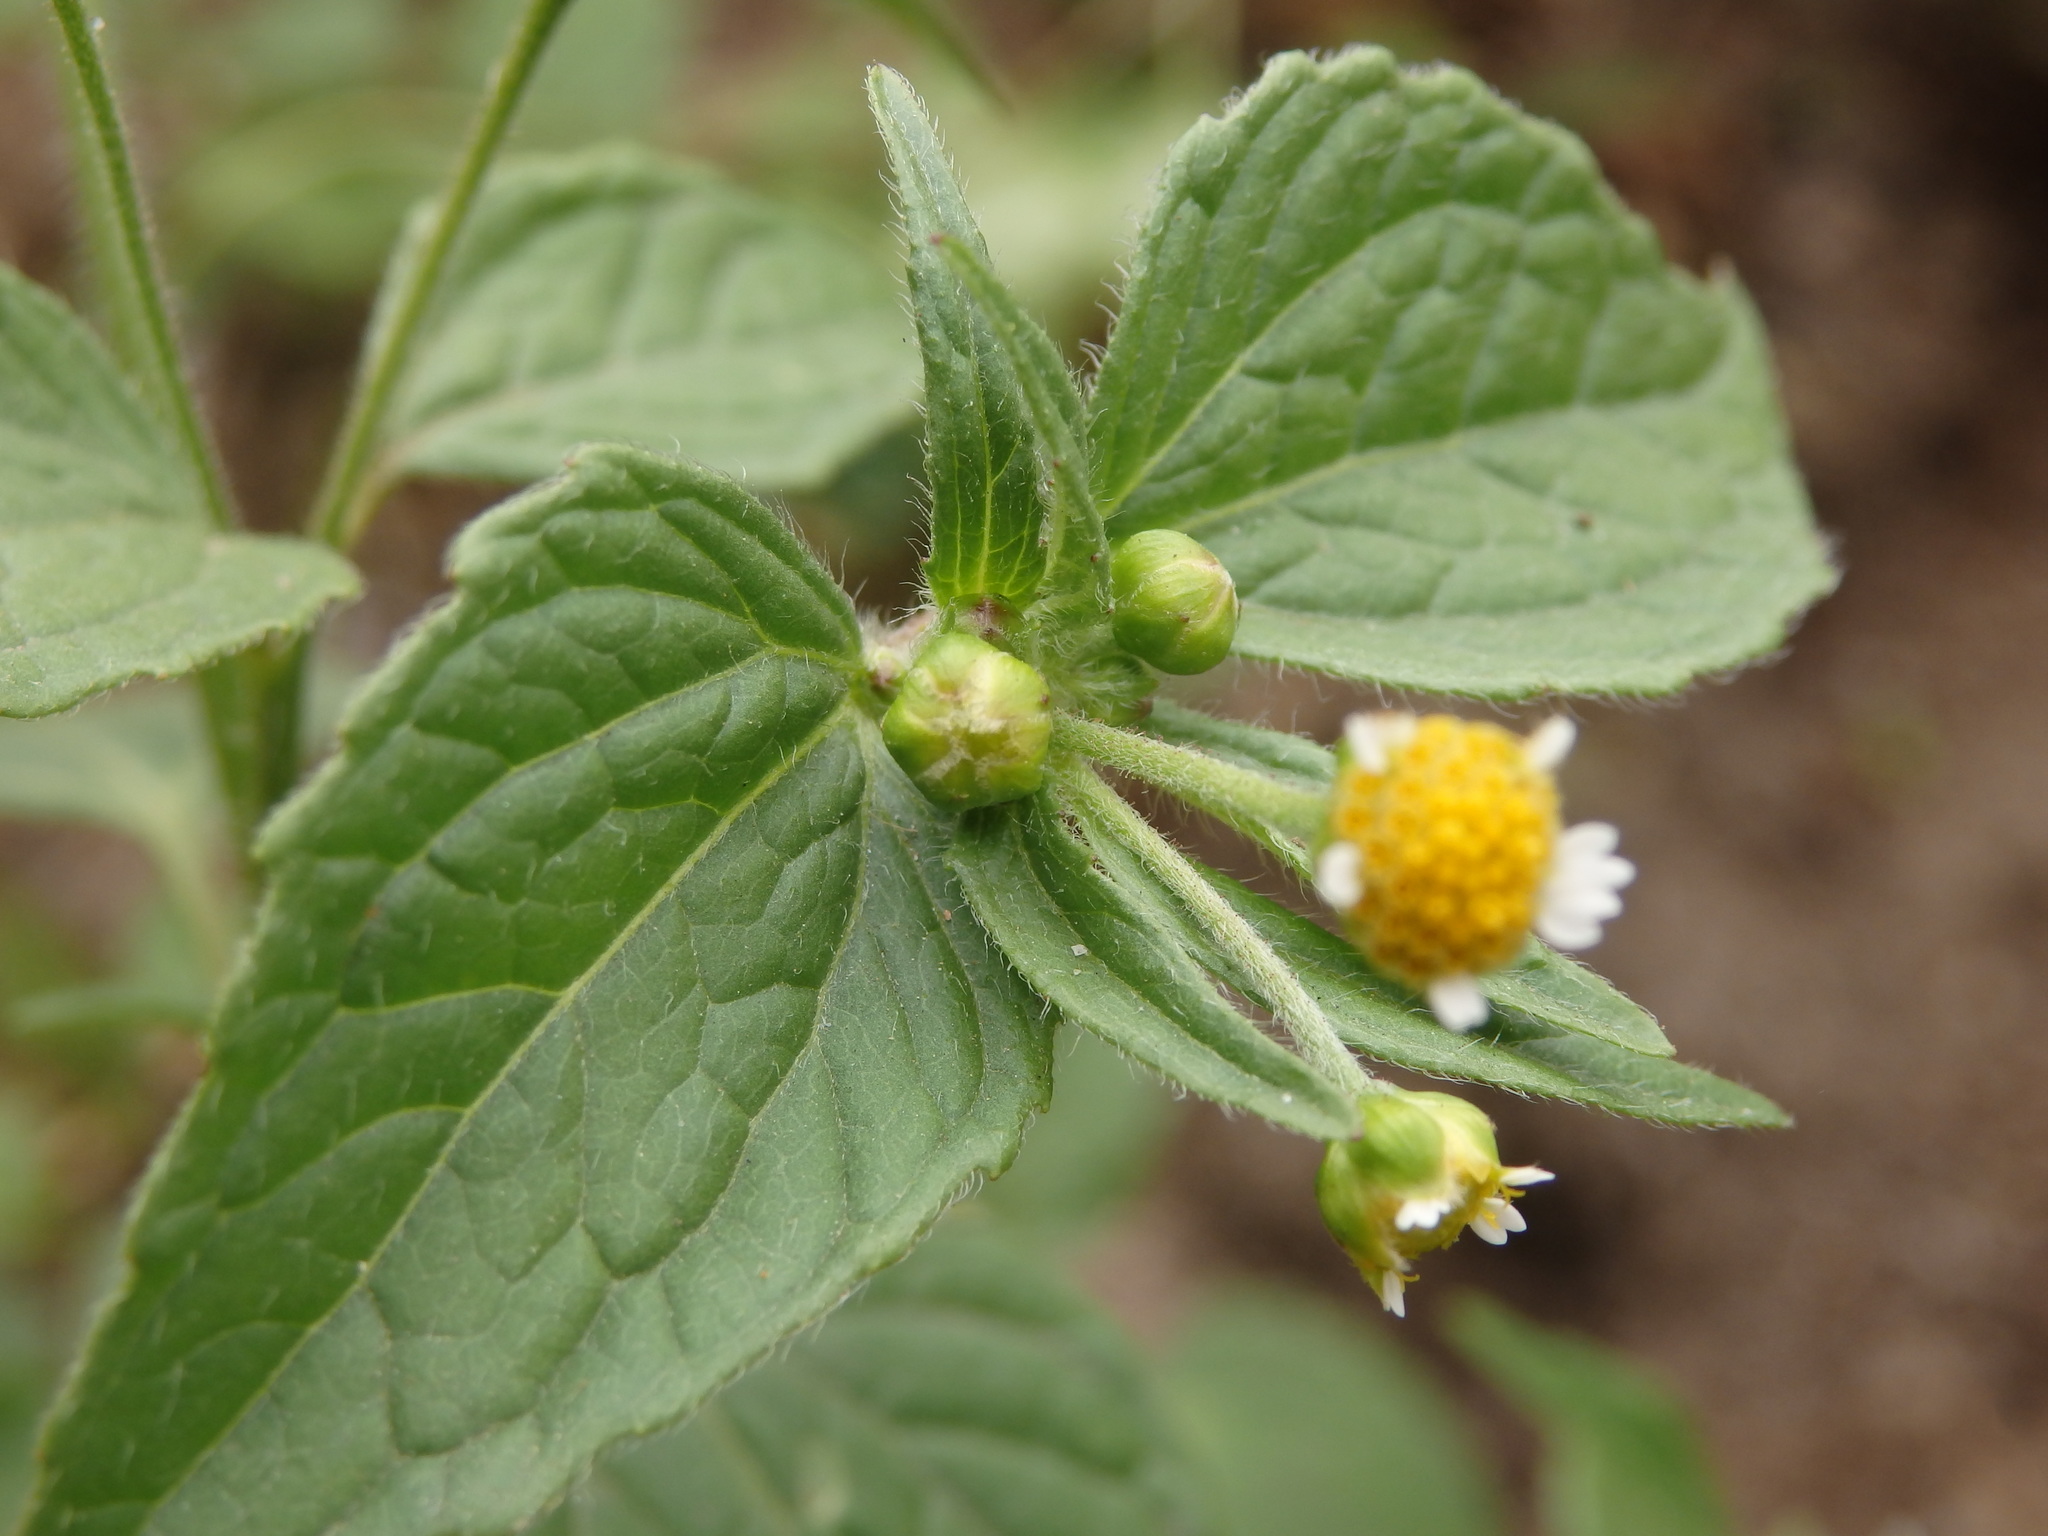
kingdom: Plantae
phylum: Tracheophyta
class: Magnoliopsida
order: Asterales
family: Asteraceae
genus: Galinsoga
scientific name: Galinsoga parviflora
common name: Gallant soldier
